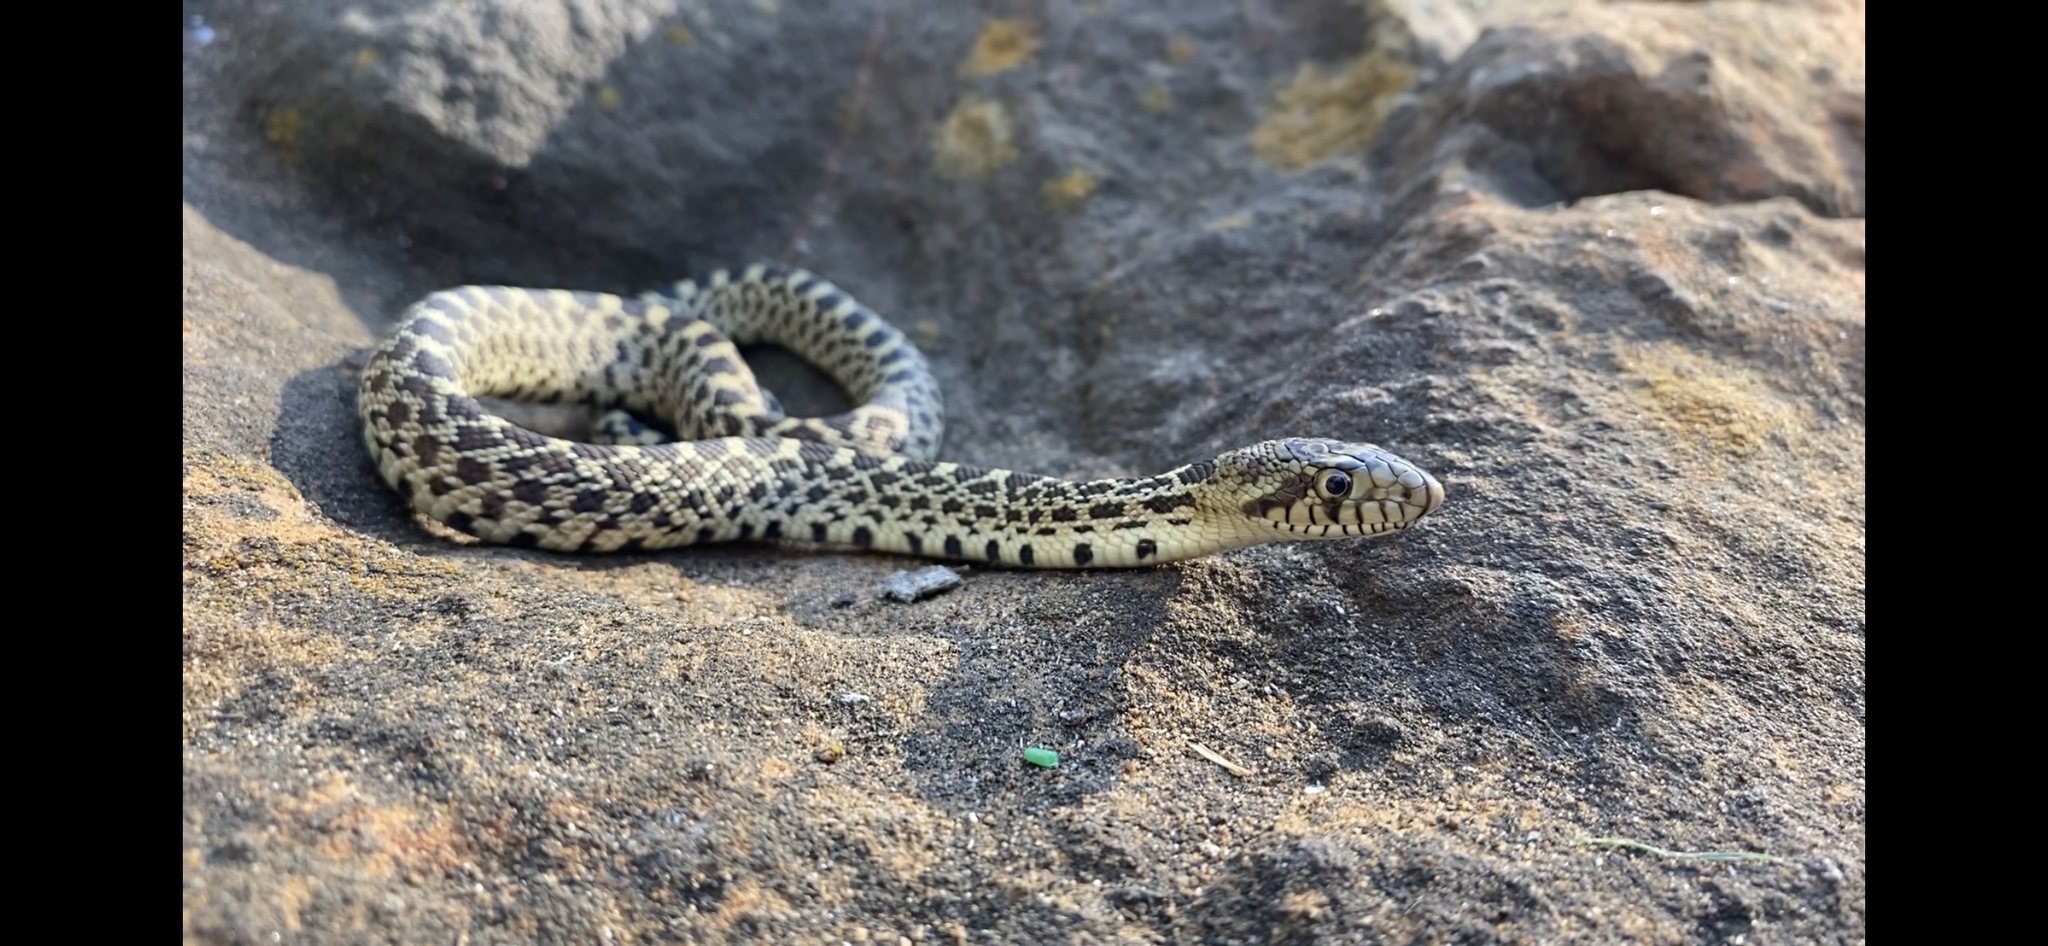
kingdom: Animalia
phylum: Chordata
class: Squamata
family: Colubridae
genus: Pituophis
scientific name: Pituophis catenifer
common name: Gopher snake
